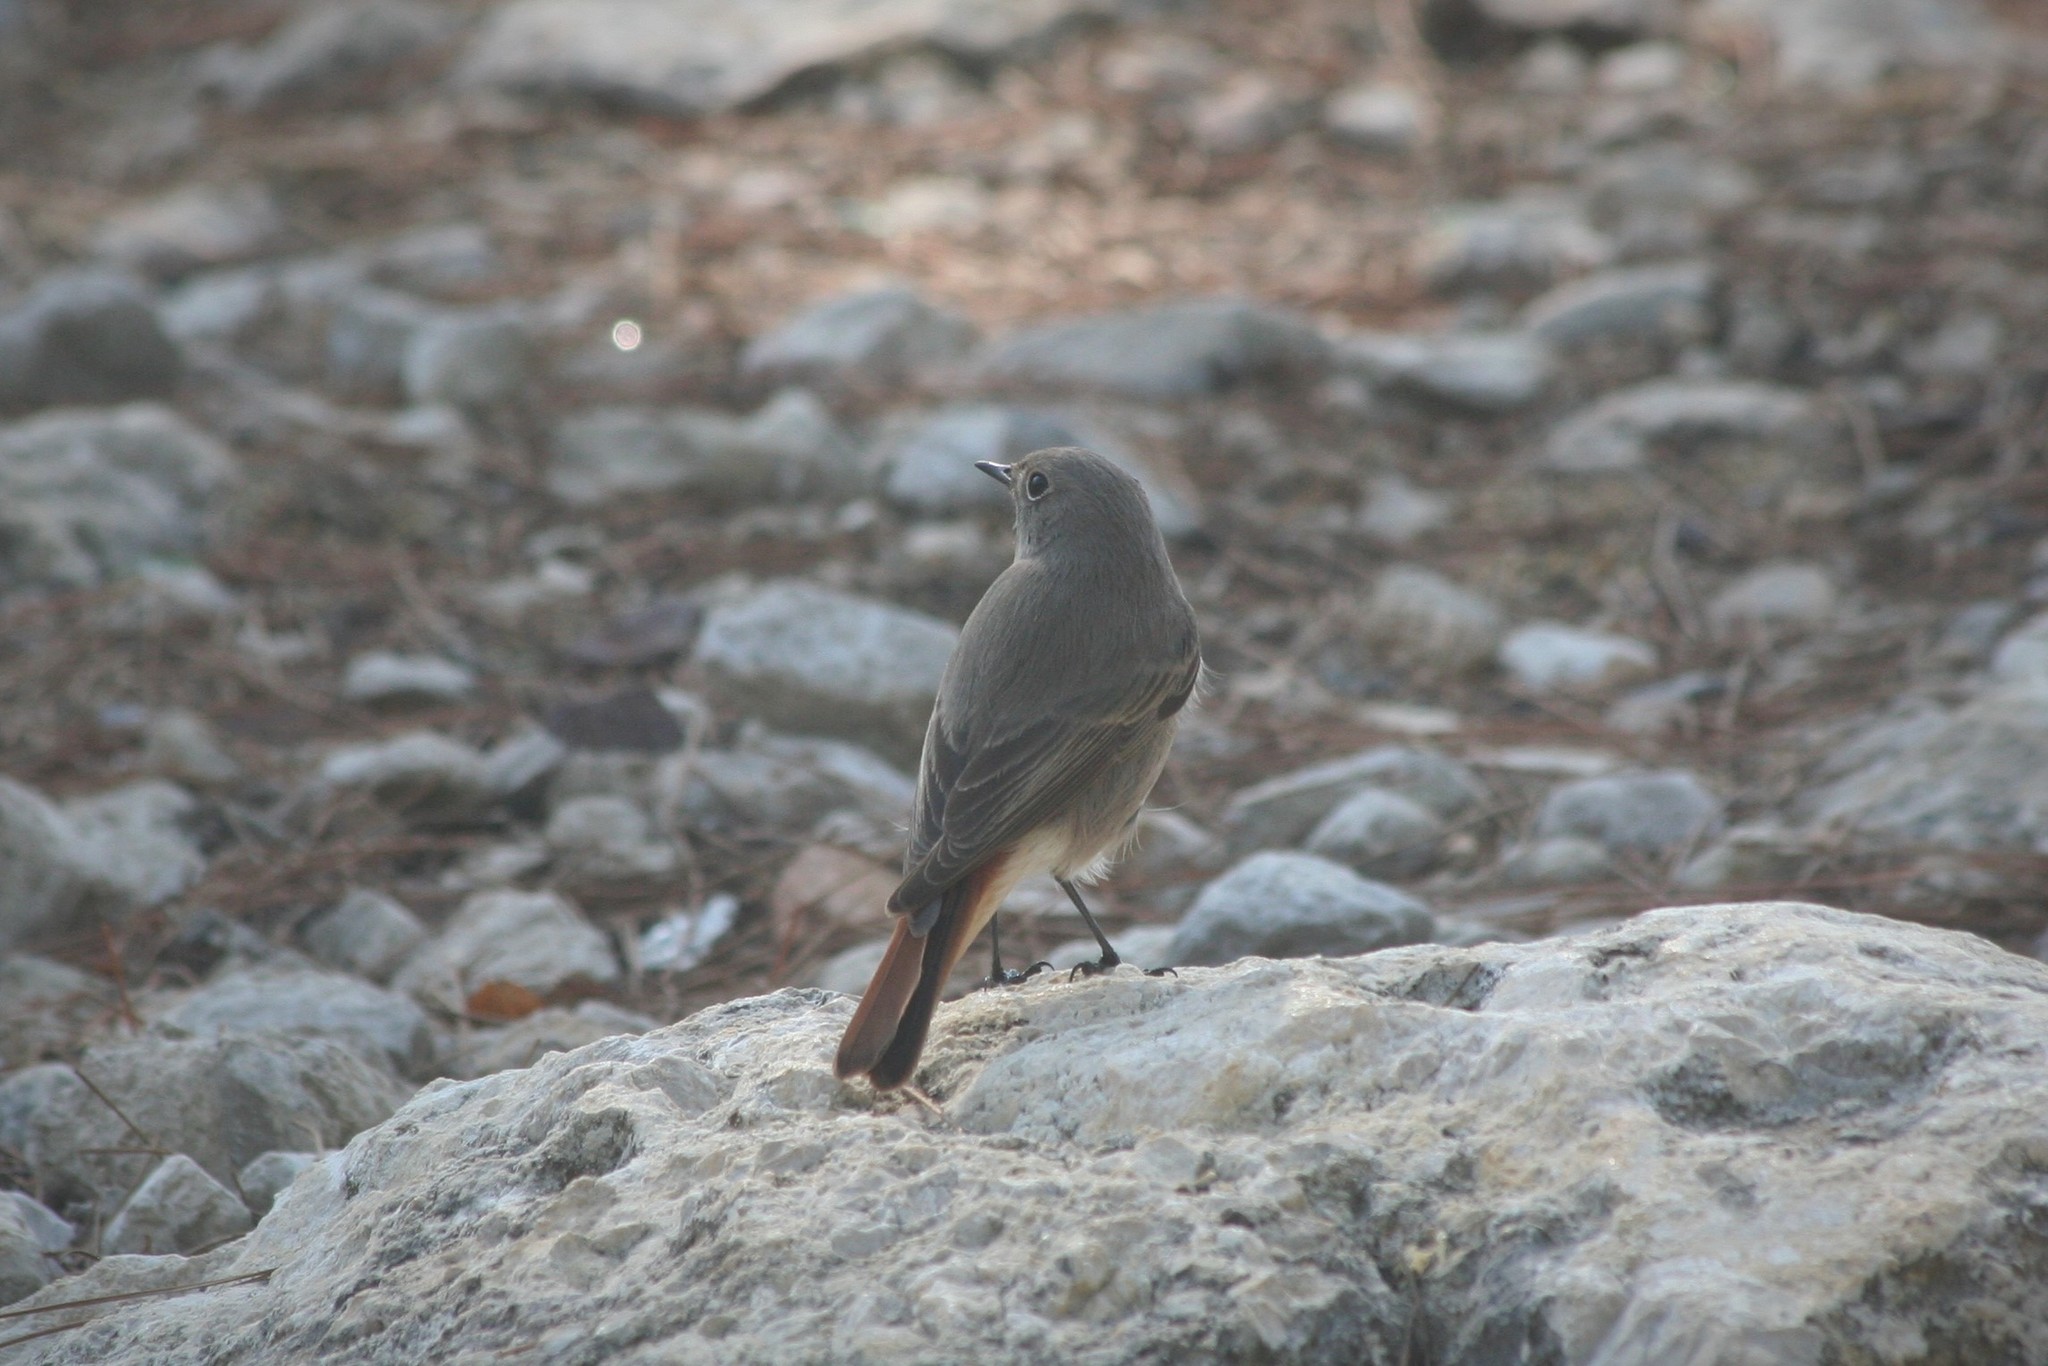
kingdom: Animalia
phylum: Chordata
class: Aves
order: Passeriformes
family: Muscicapidae
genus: Phoenicurus
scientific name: Phoenicurus ochruros
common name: Black redstart
